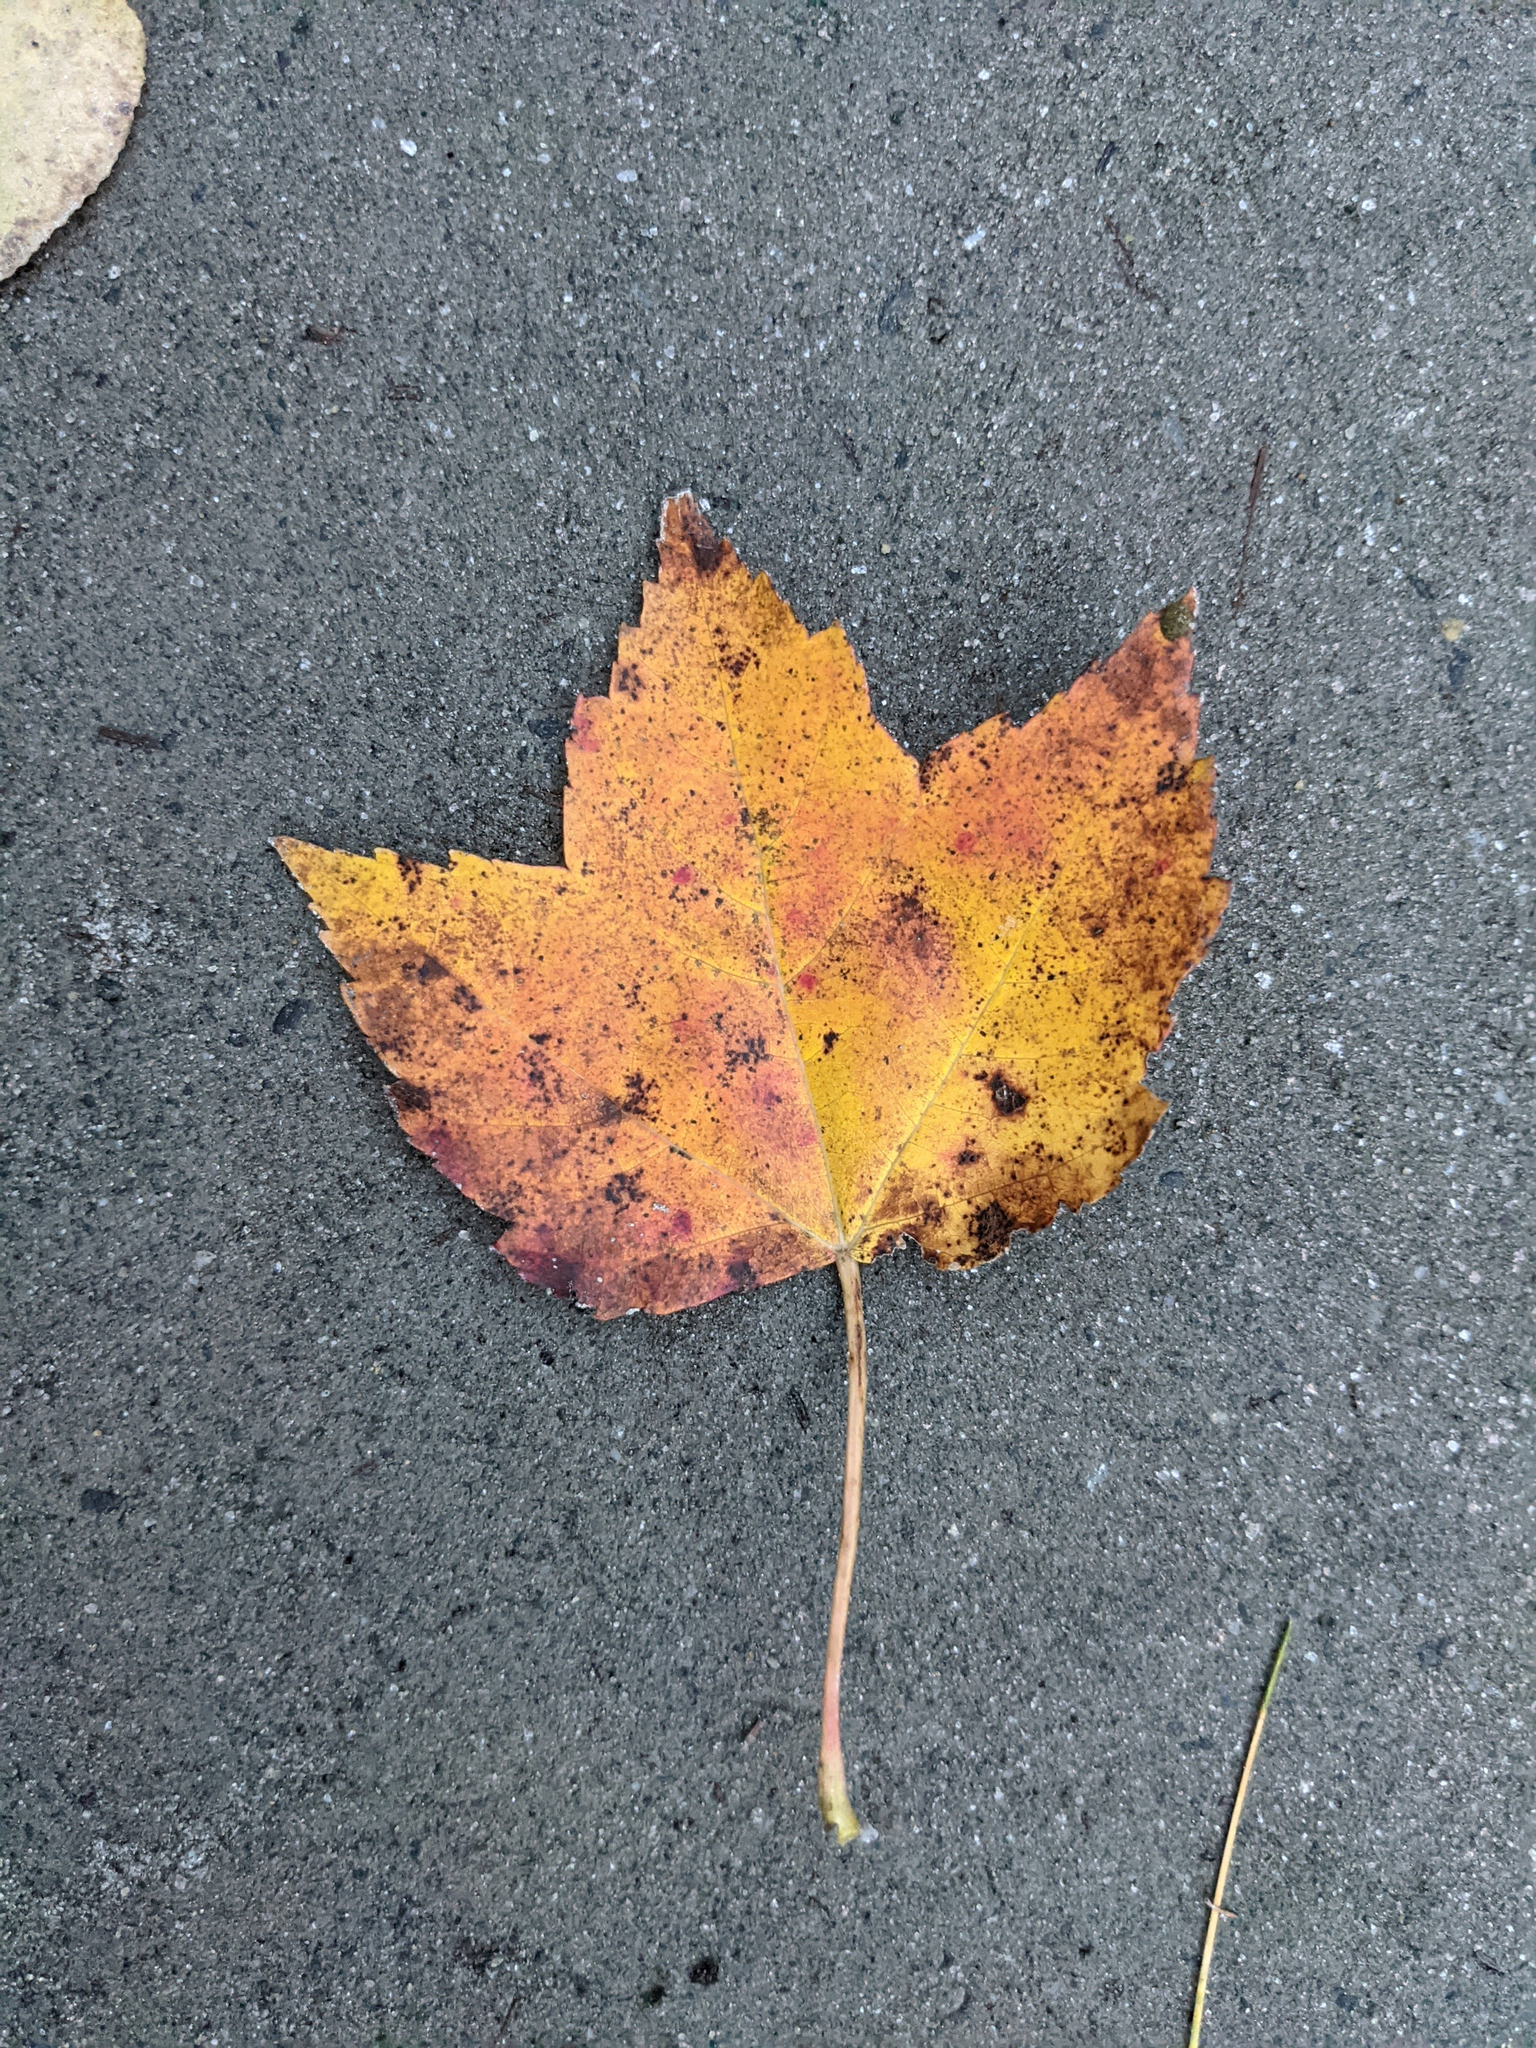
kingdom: Plantae
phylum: Tracheophyta
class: Magnoliopsida
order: Sapindales
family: Sapindaceae
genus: Acer
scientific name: Acer rubrum
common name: Red maple
